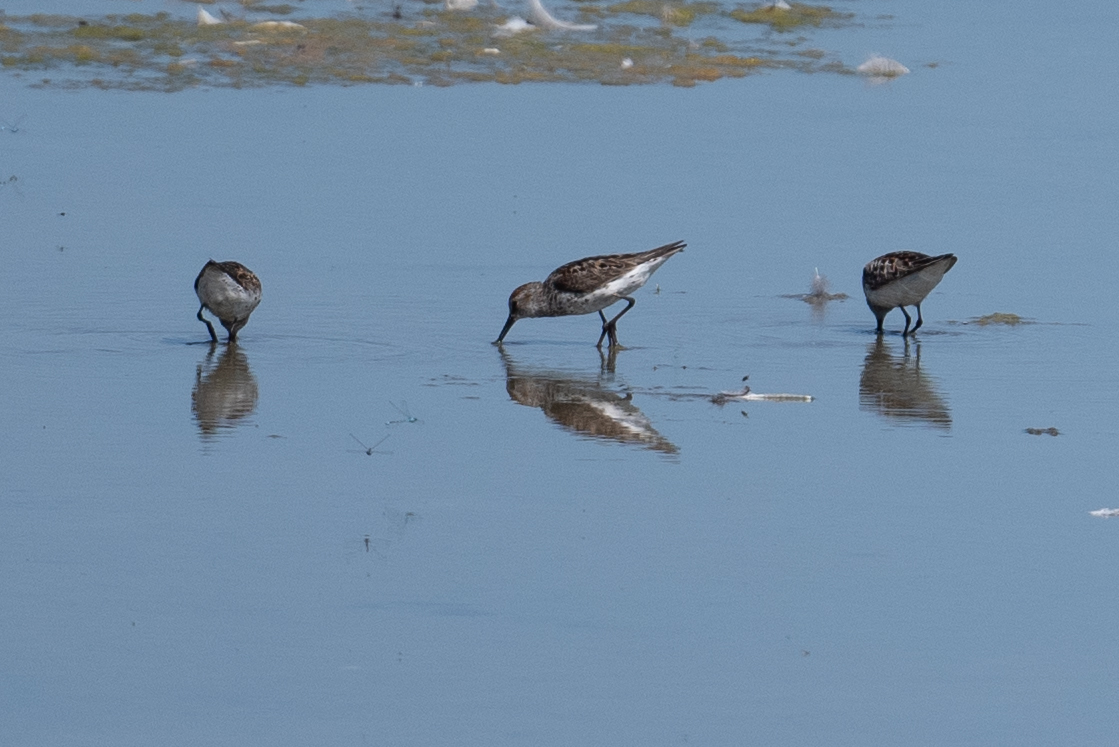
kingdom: Animalia
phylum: Chordata
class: Aves
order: Charadriiformes
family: Scolopacidae
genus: Calidris
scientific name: Calidris mauri
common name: Western sandpiper
